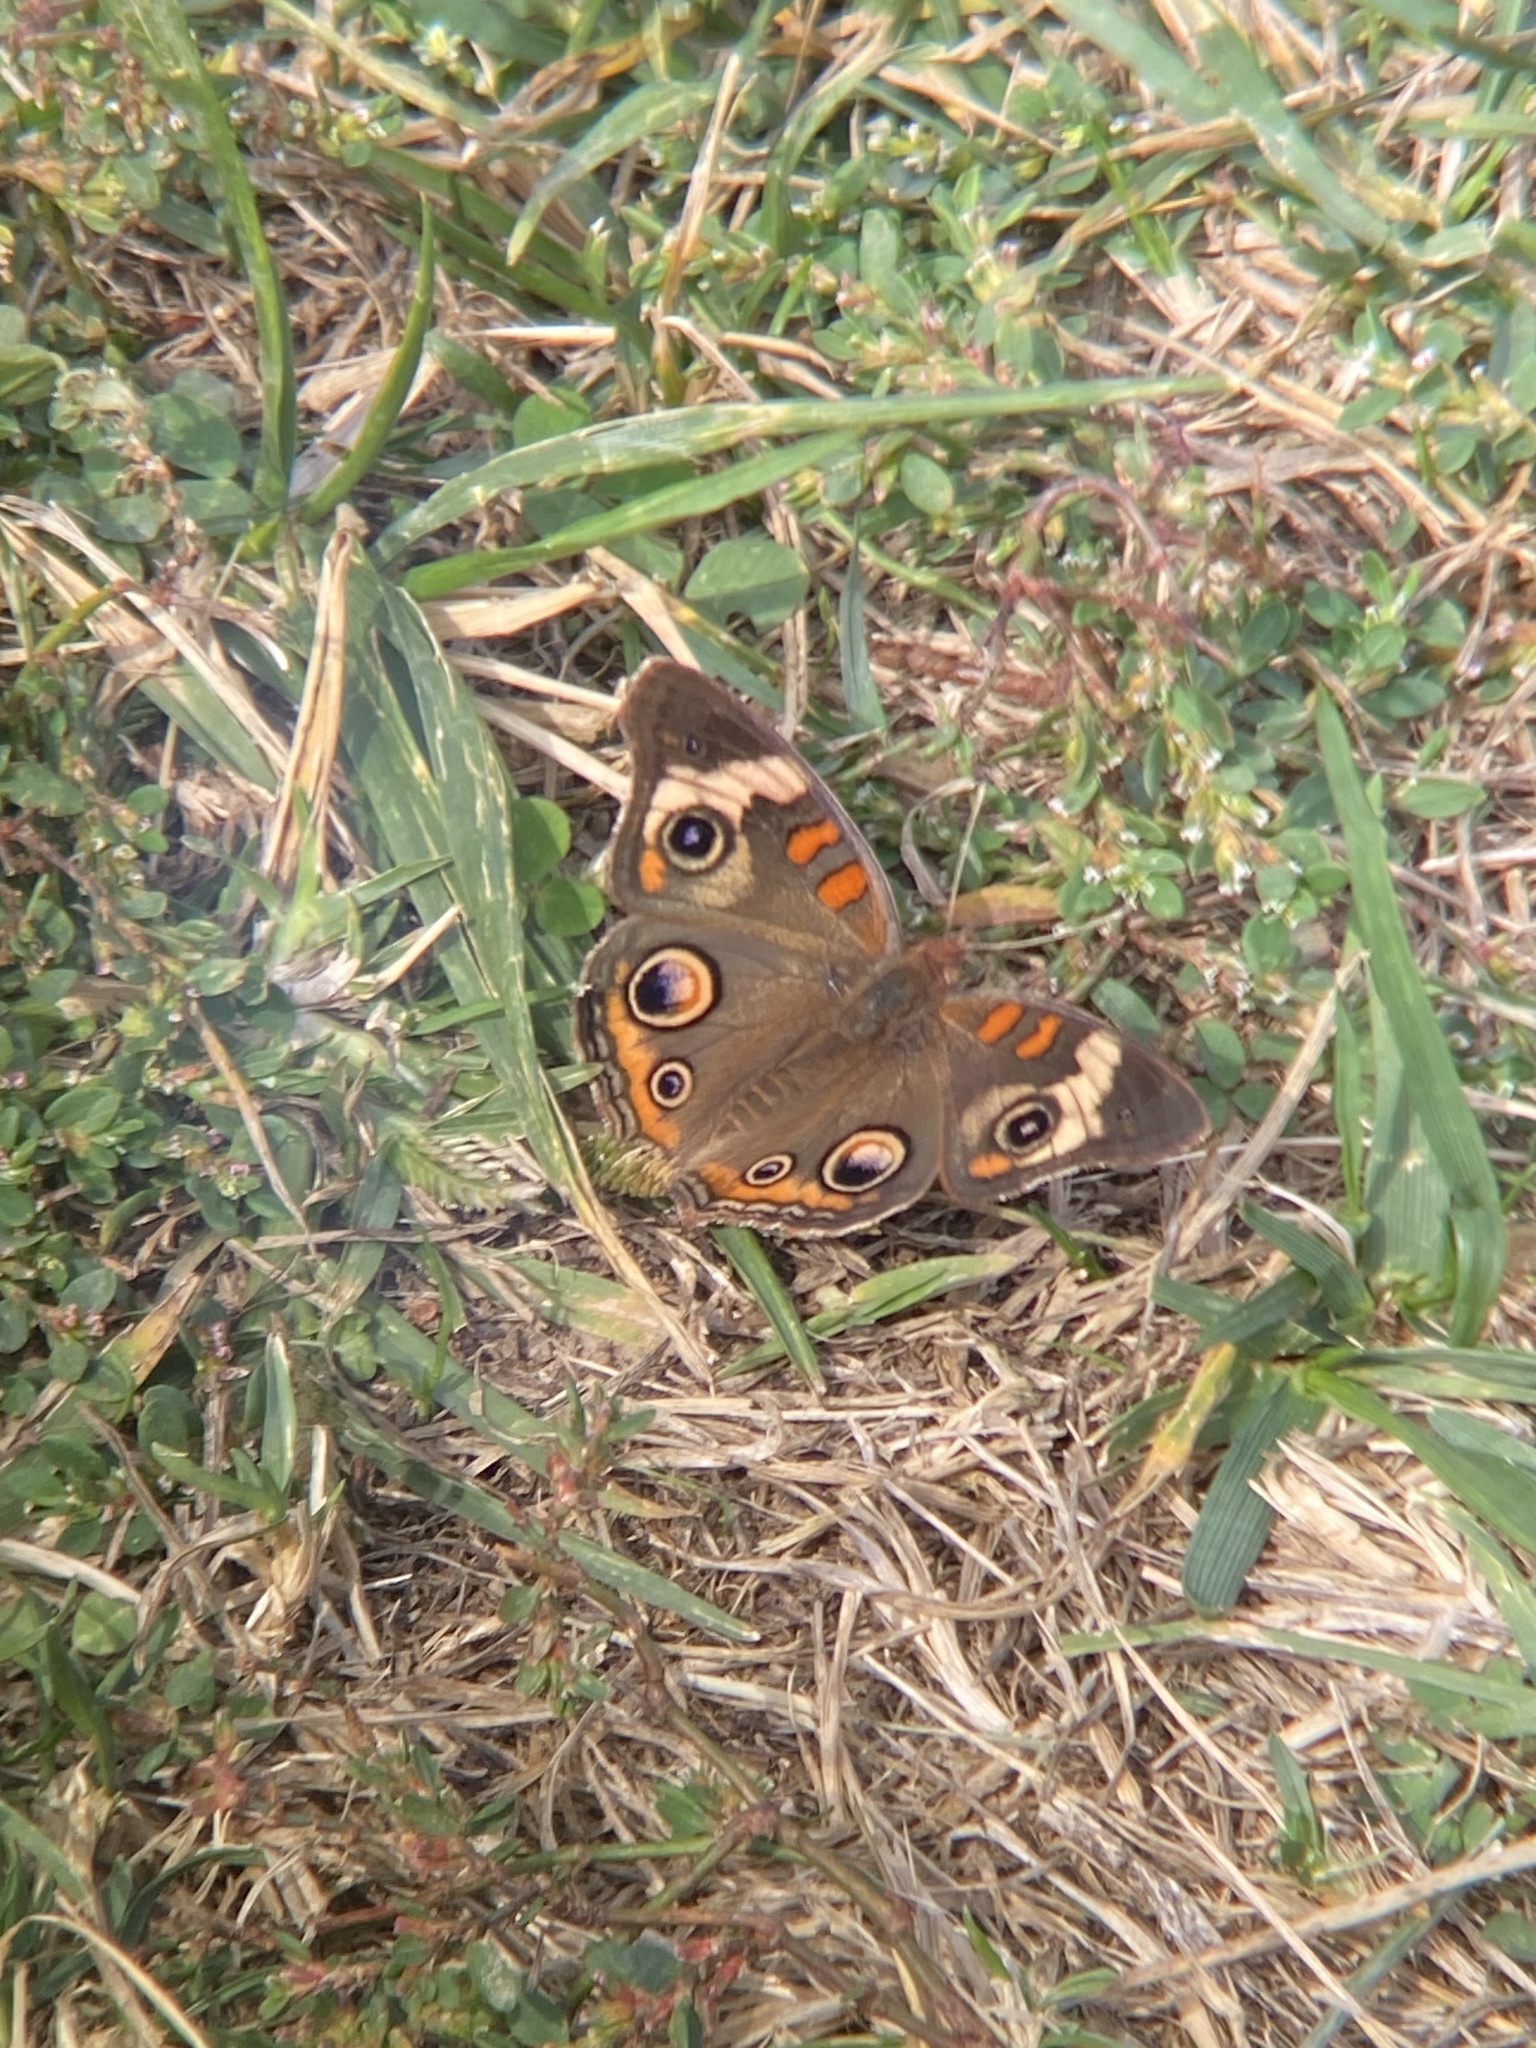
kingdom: Animalia
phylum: Arthropoda
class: Insecta
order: Lepidoptera
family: Nymphalidae
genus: Junonia
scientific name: Junonia coenia
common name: Common buckeye
